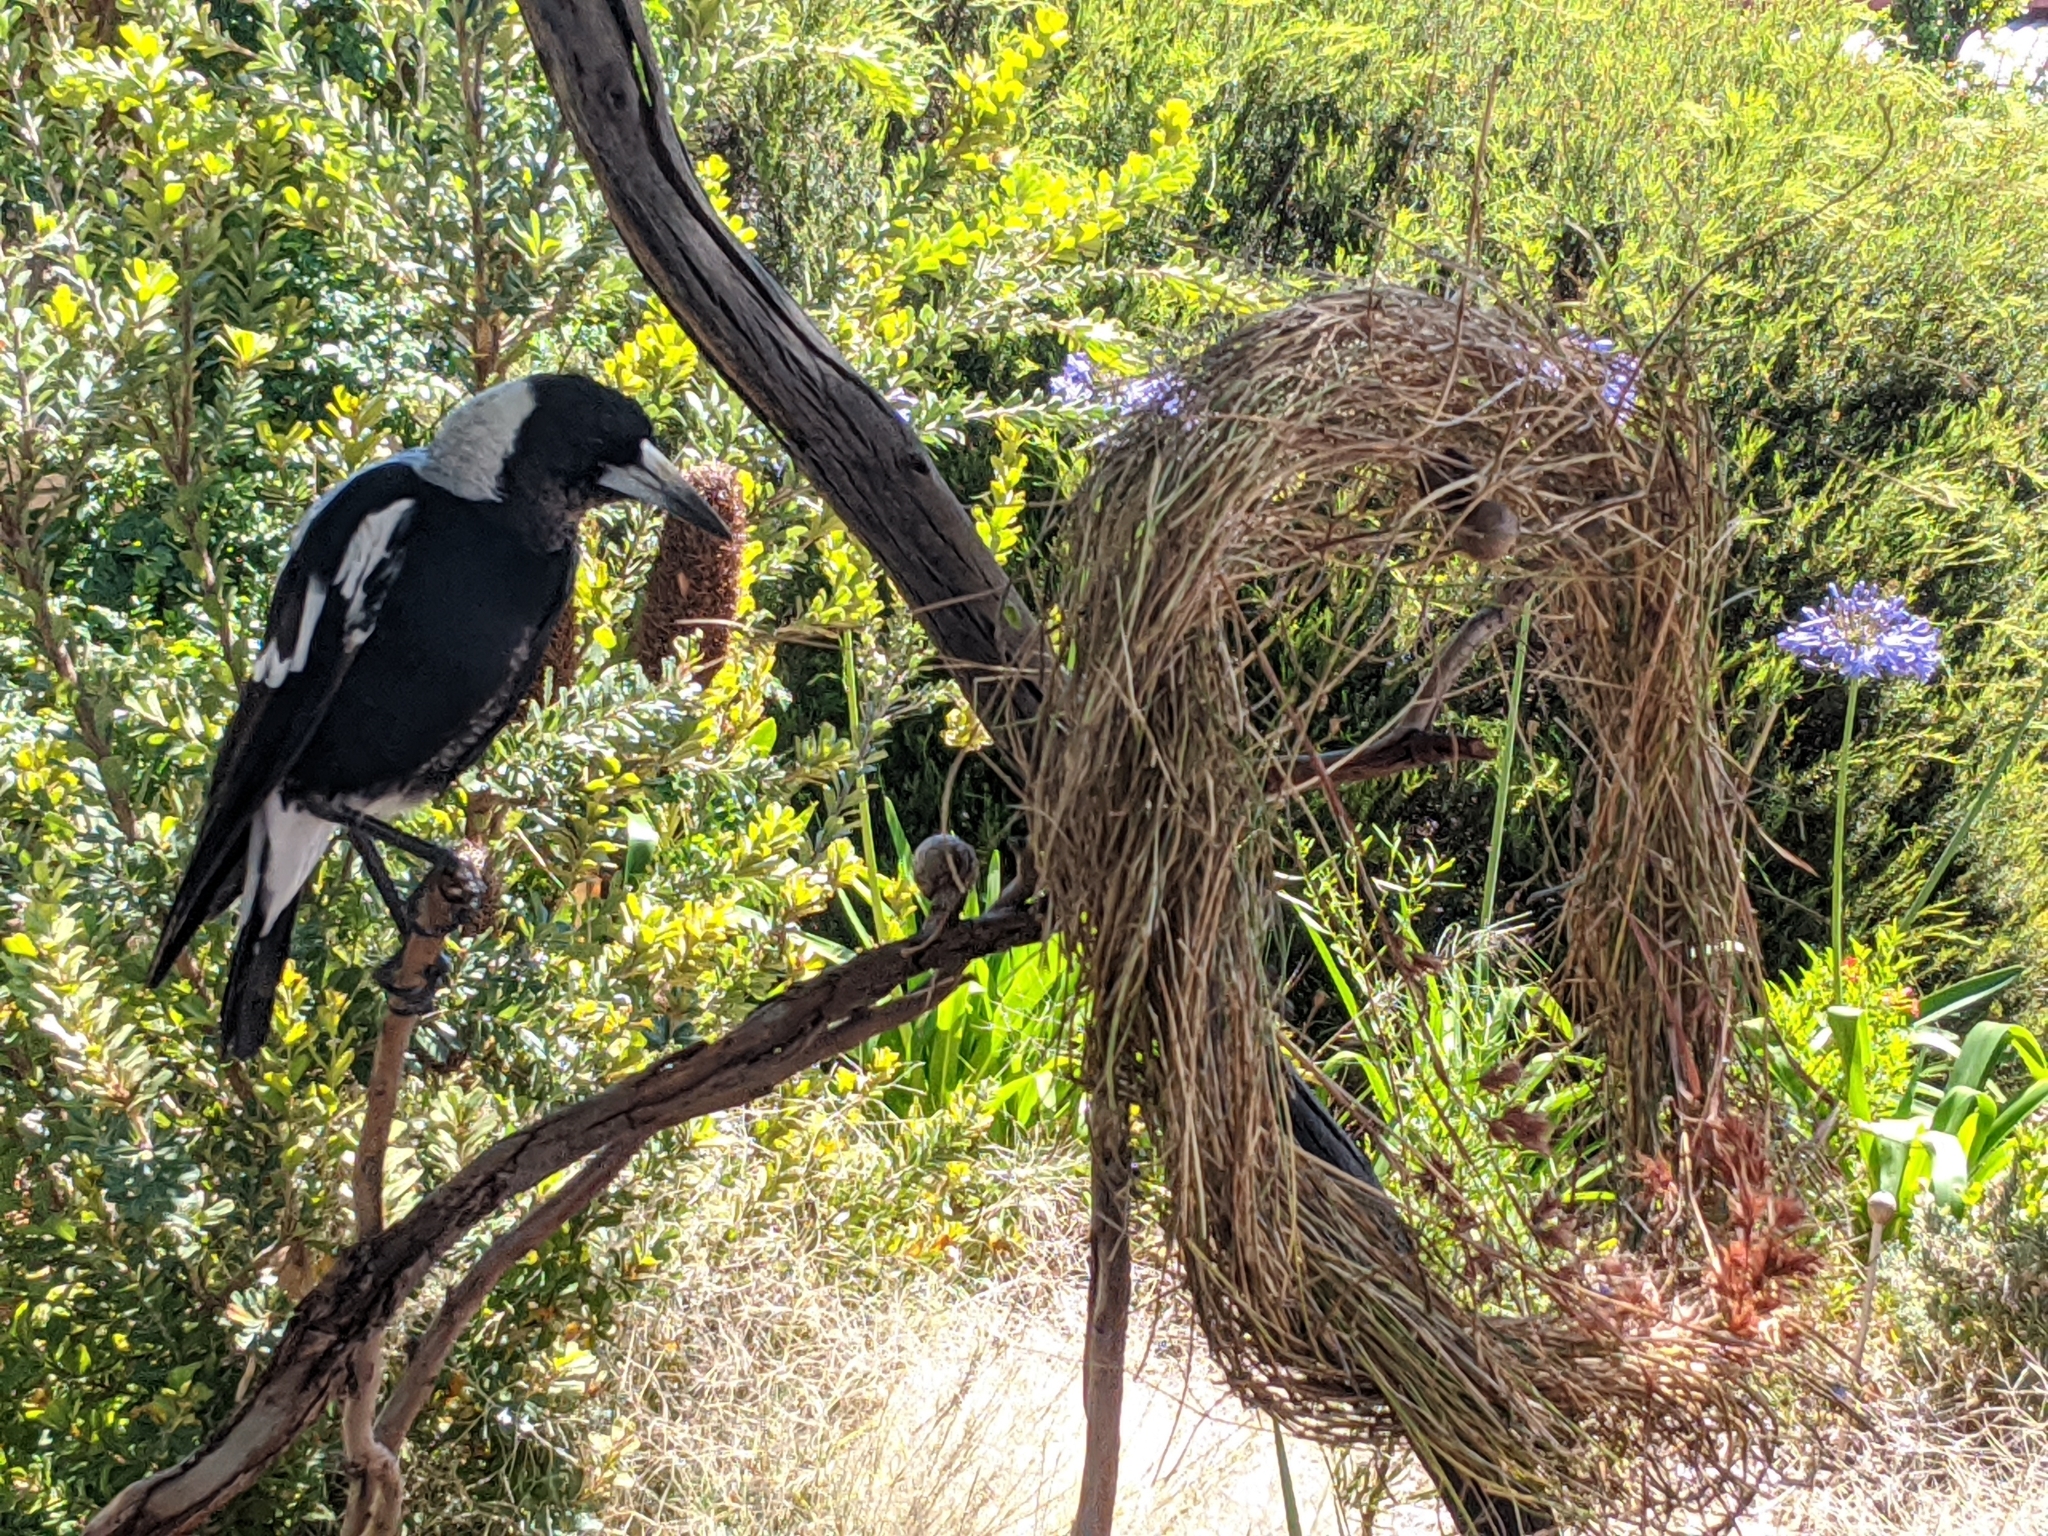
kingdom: Animalia
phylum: Chordata
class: Aves
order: Passeriformes
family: Cracticidae
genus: Gymnorhina
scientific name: Gymnorhina tibicen
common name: Australian magpie
